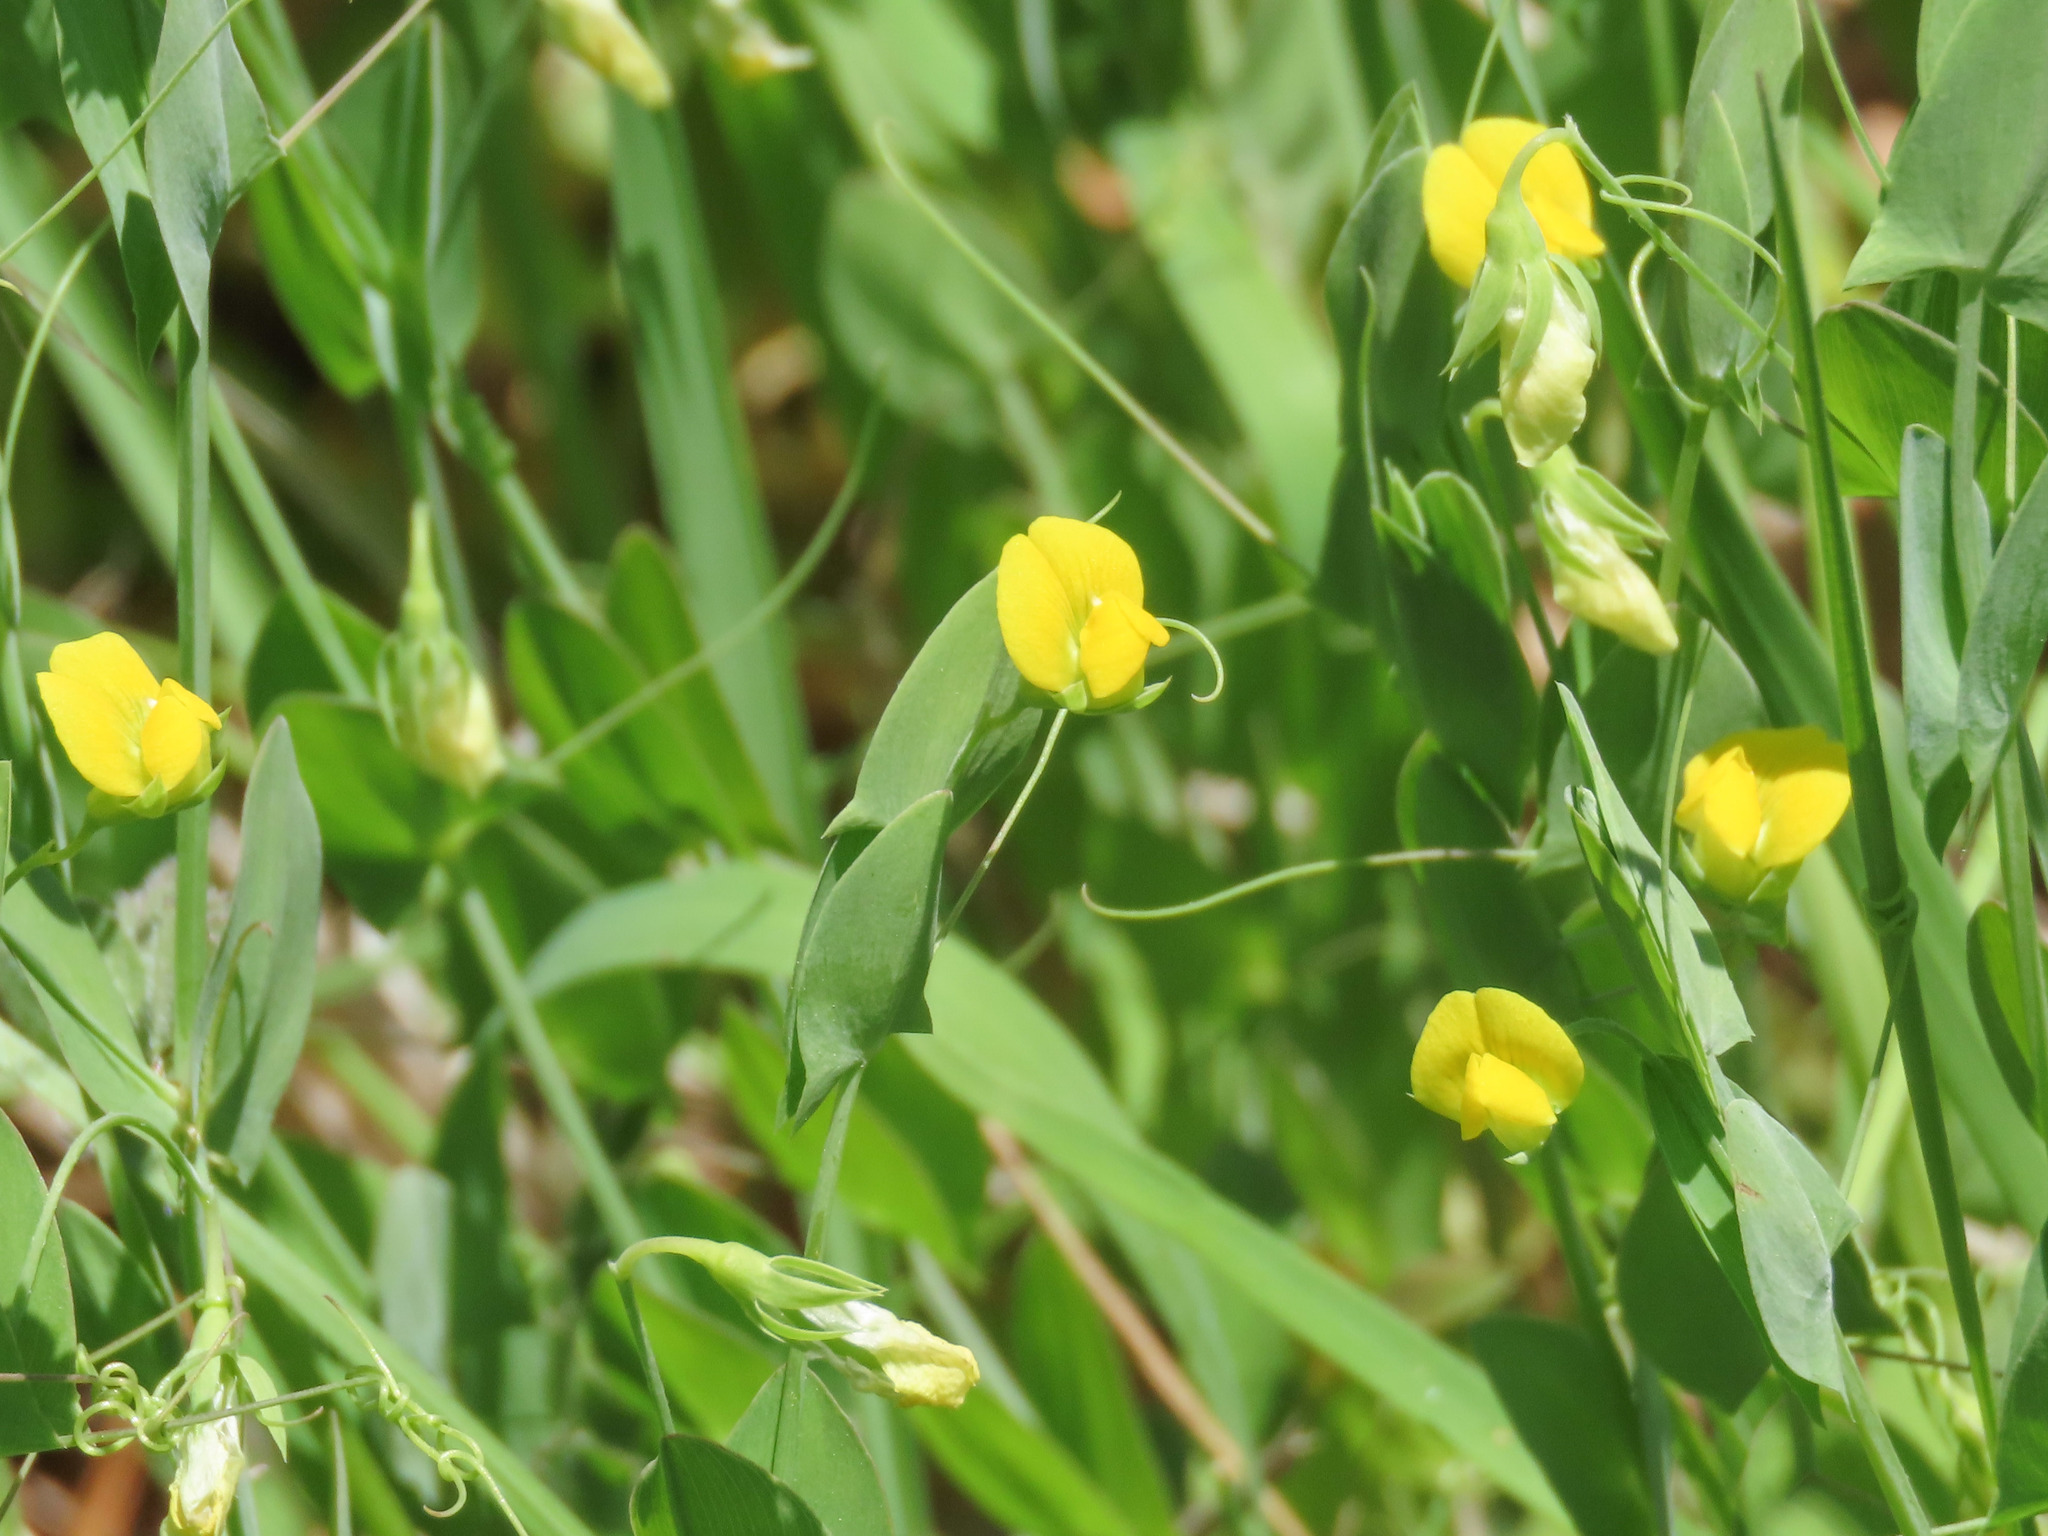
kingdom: Plantae
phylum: Tracheophyta
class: Magnoliopsida
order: Fabales
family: Fabaceae
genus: Lathyrus
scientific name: Lathyrus aphaca
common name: Yellow vetchling
